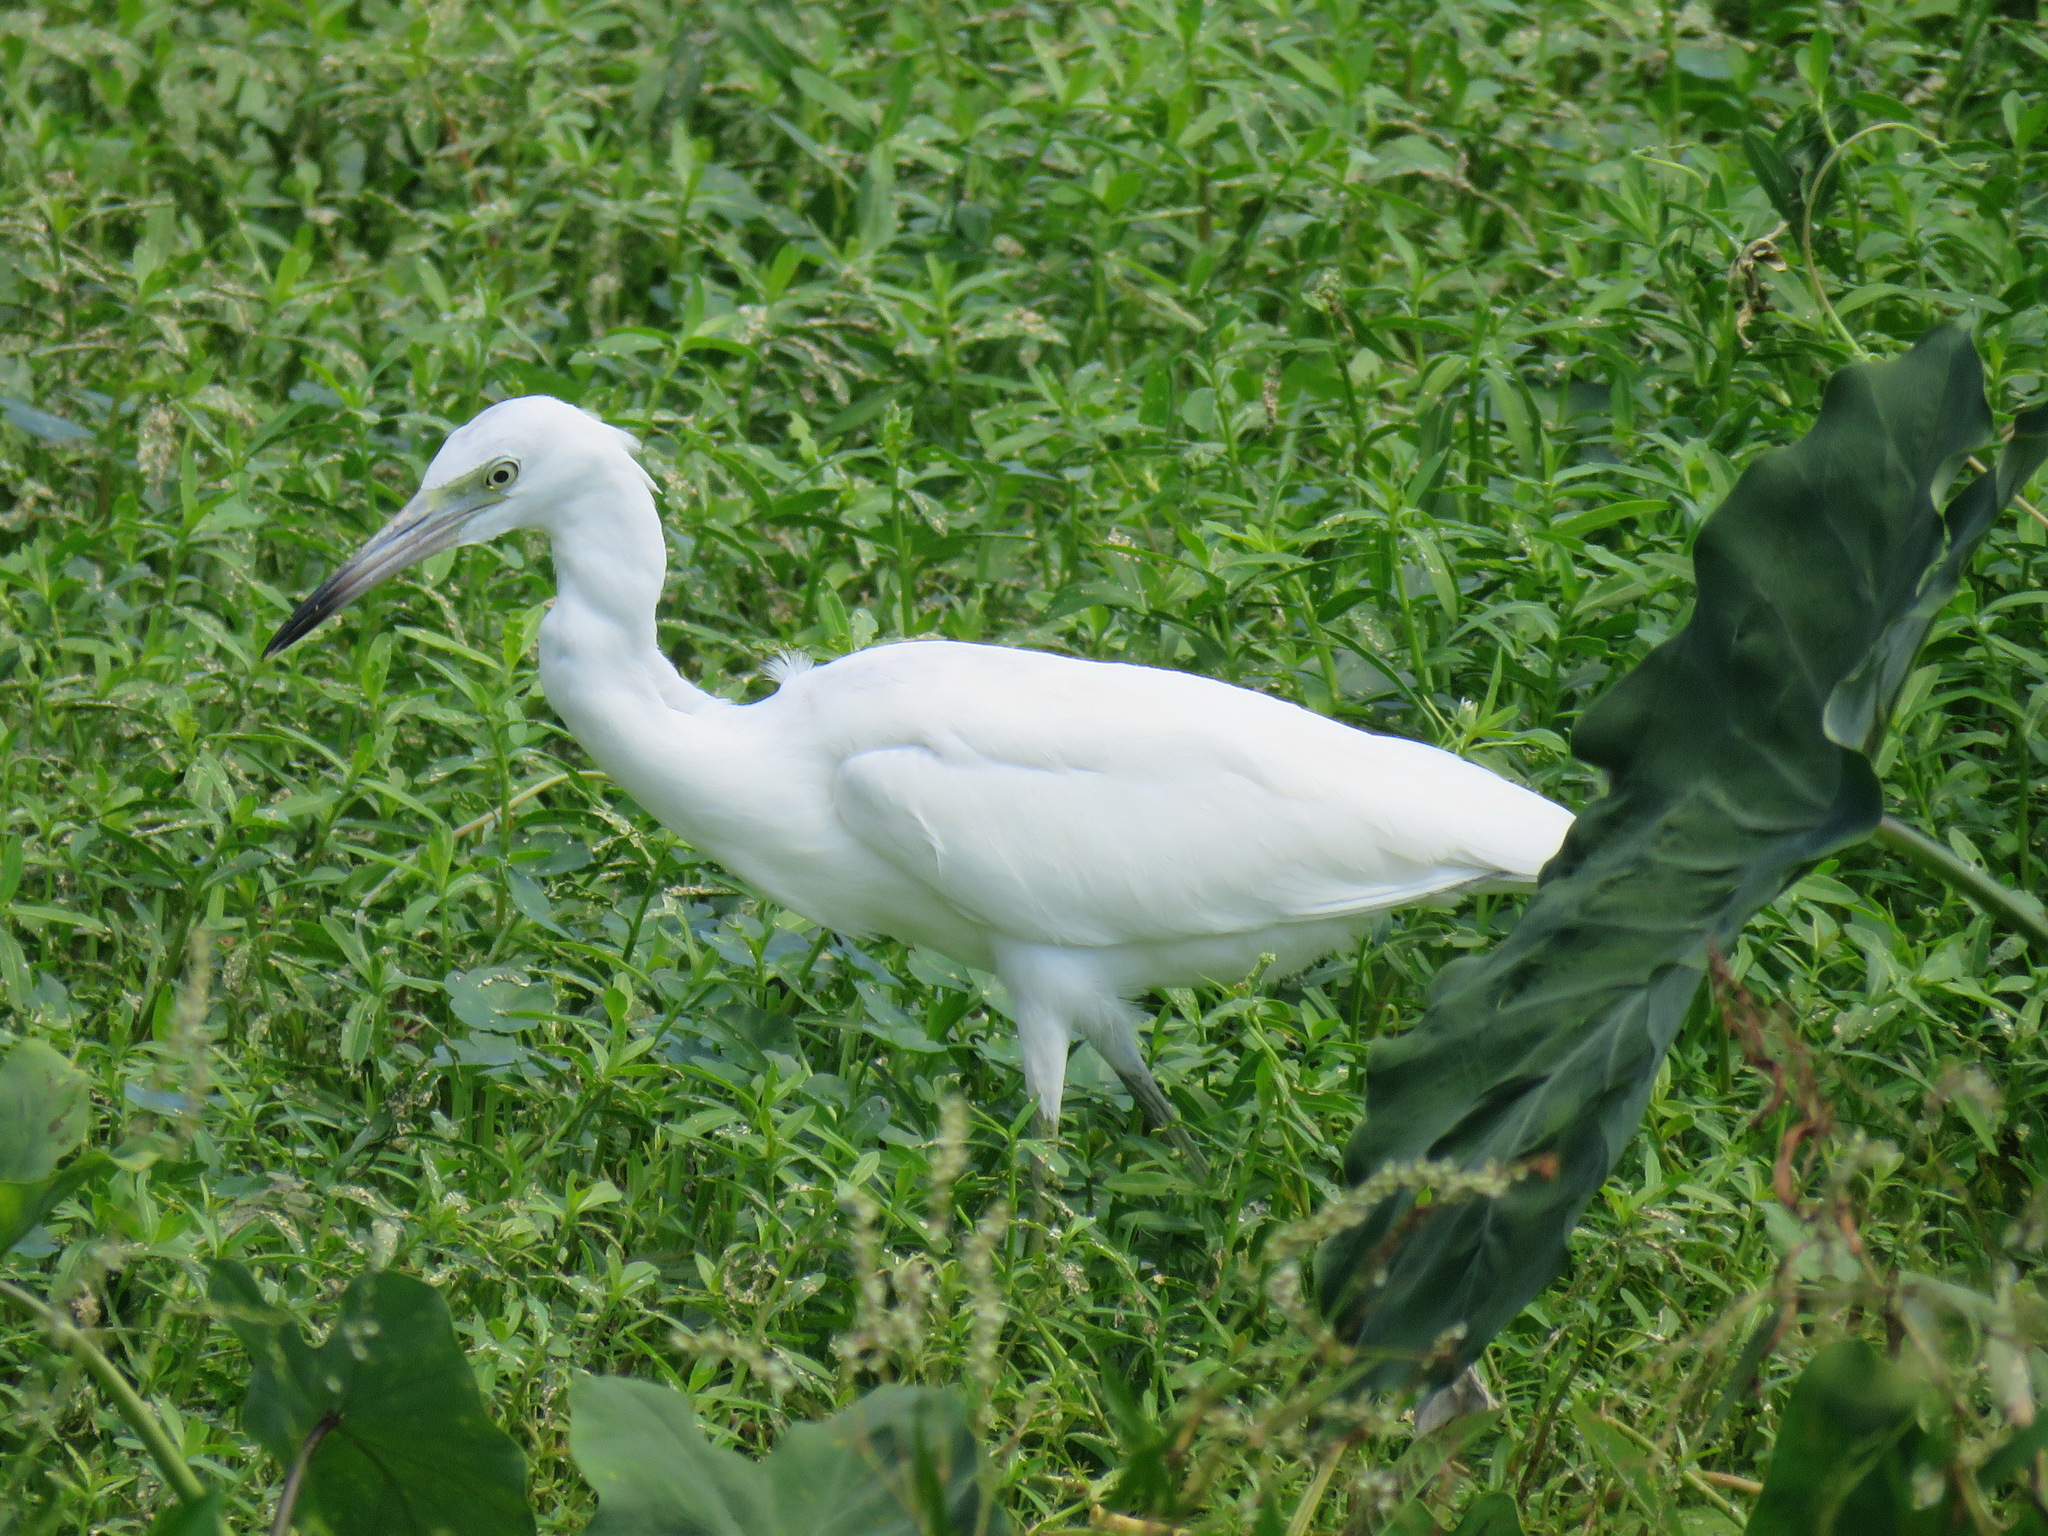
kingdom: Animalia
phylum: Chordata
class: Aves
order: Pelecaniformes
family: Ardeidae
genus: Egretta
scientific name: Egretta caerulea
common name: Little blue heron
